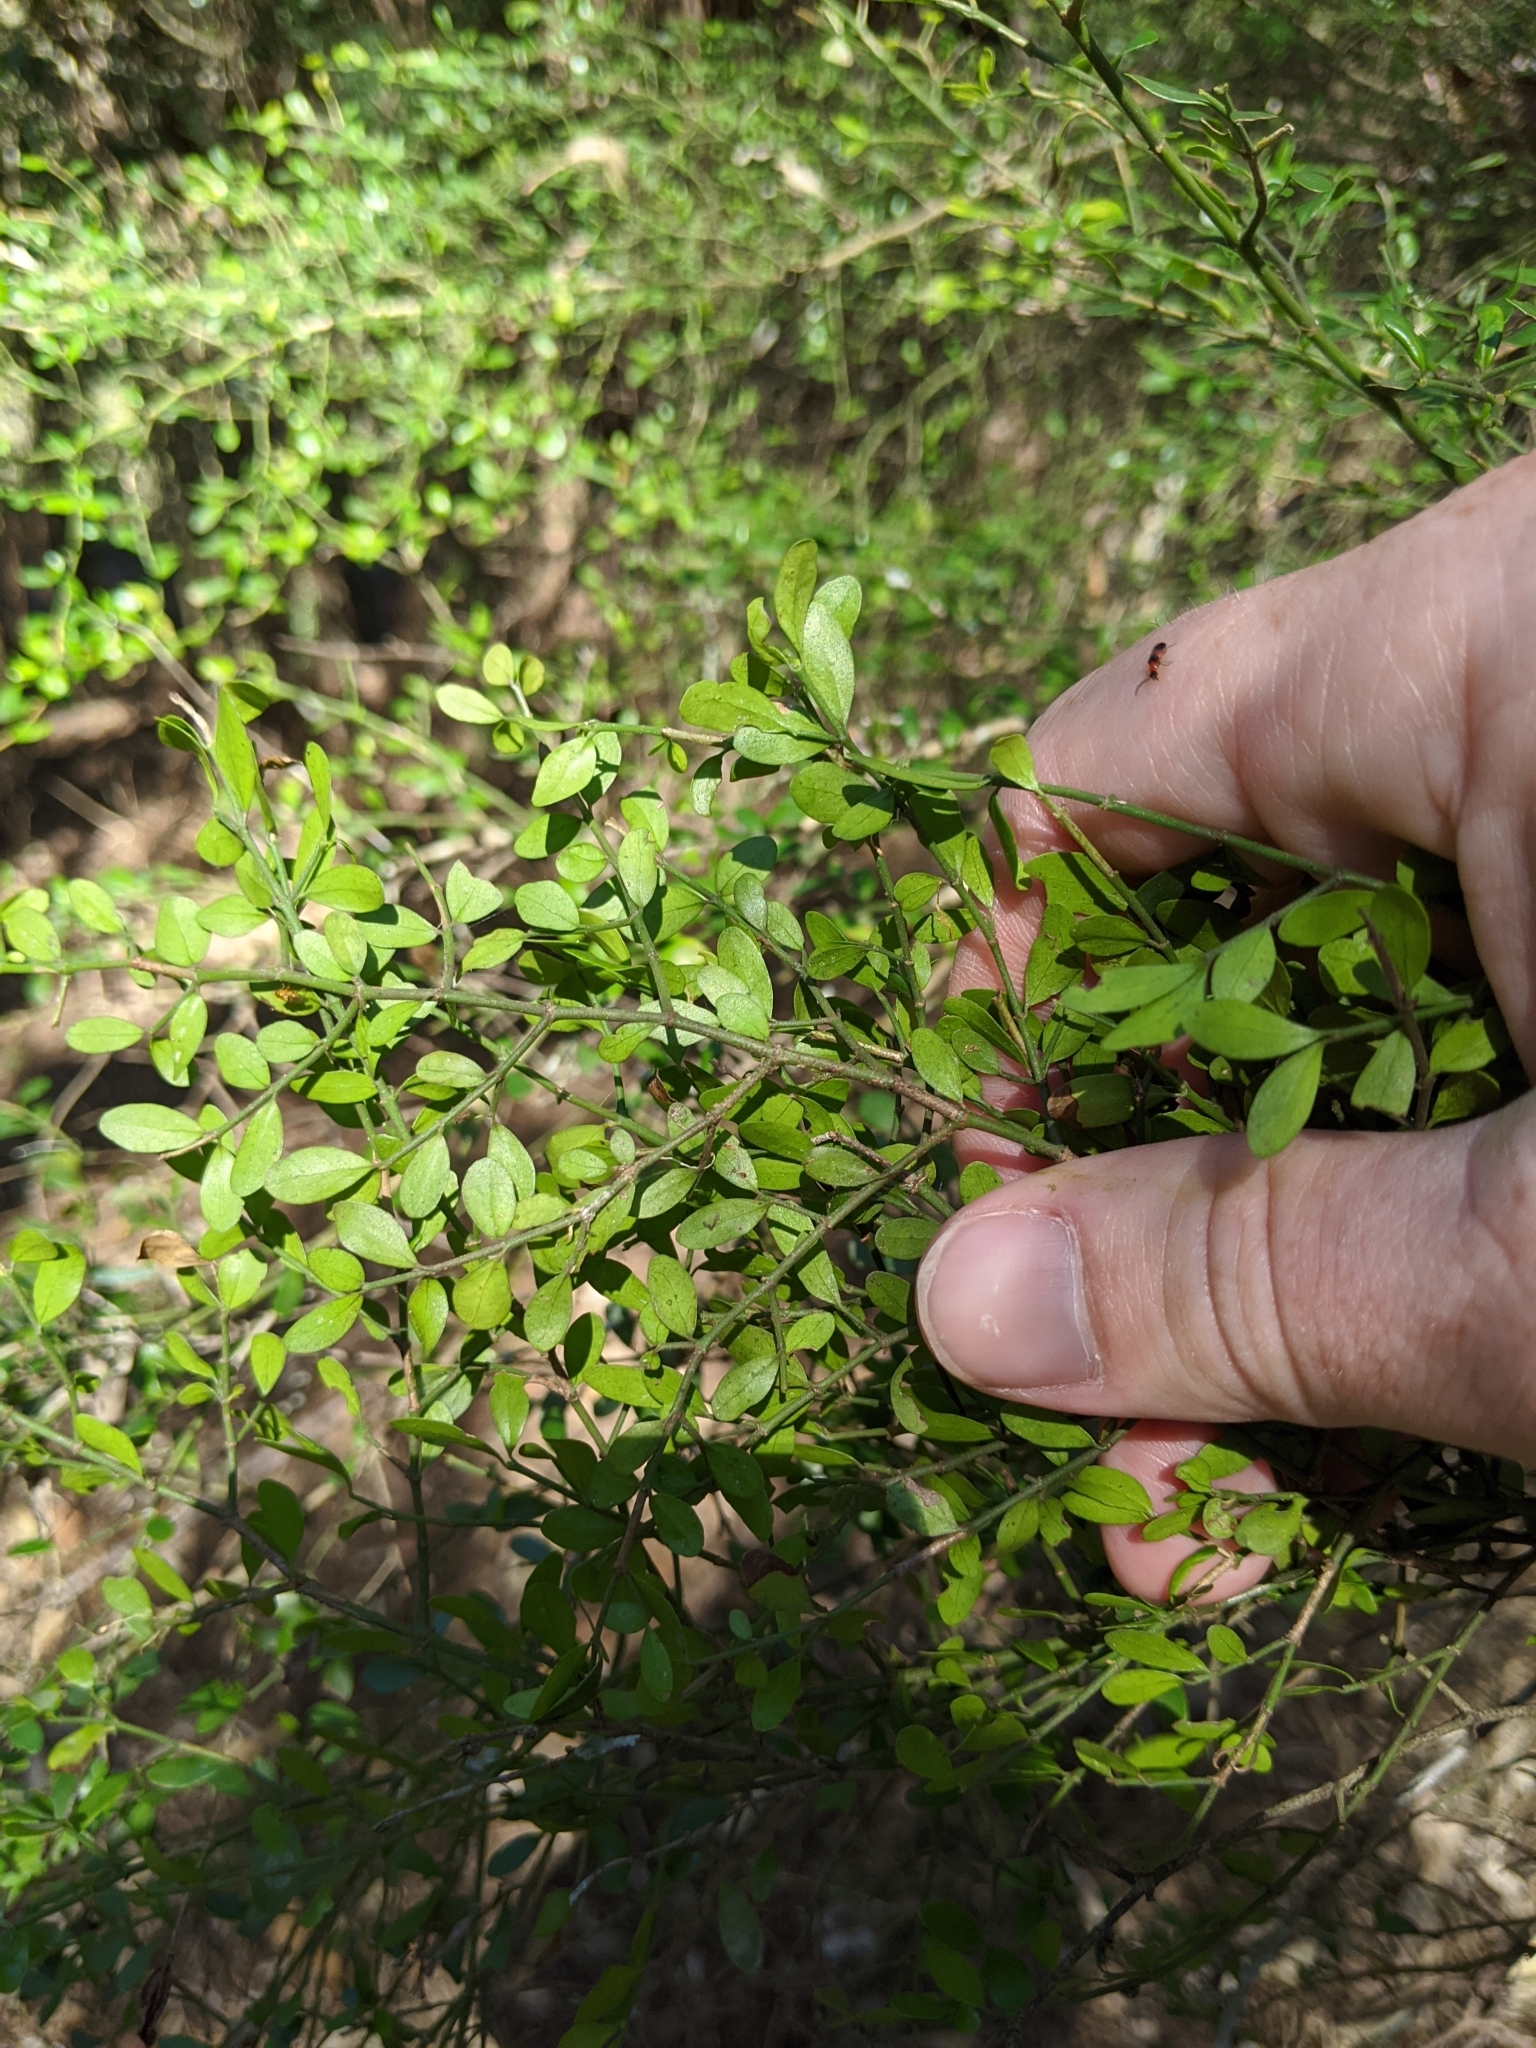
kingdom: Plantae
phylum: Tracheophyta
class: Magnoliopsida
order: Gentianales
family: Rubiaceae
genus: Everistia
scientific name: Everistia vacciniifolia
